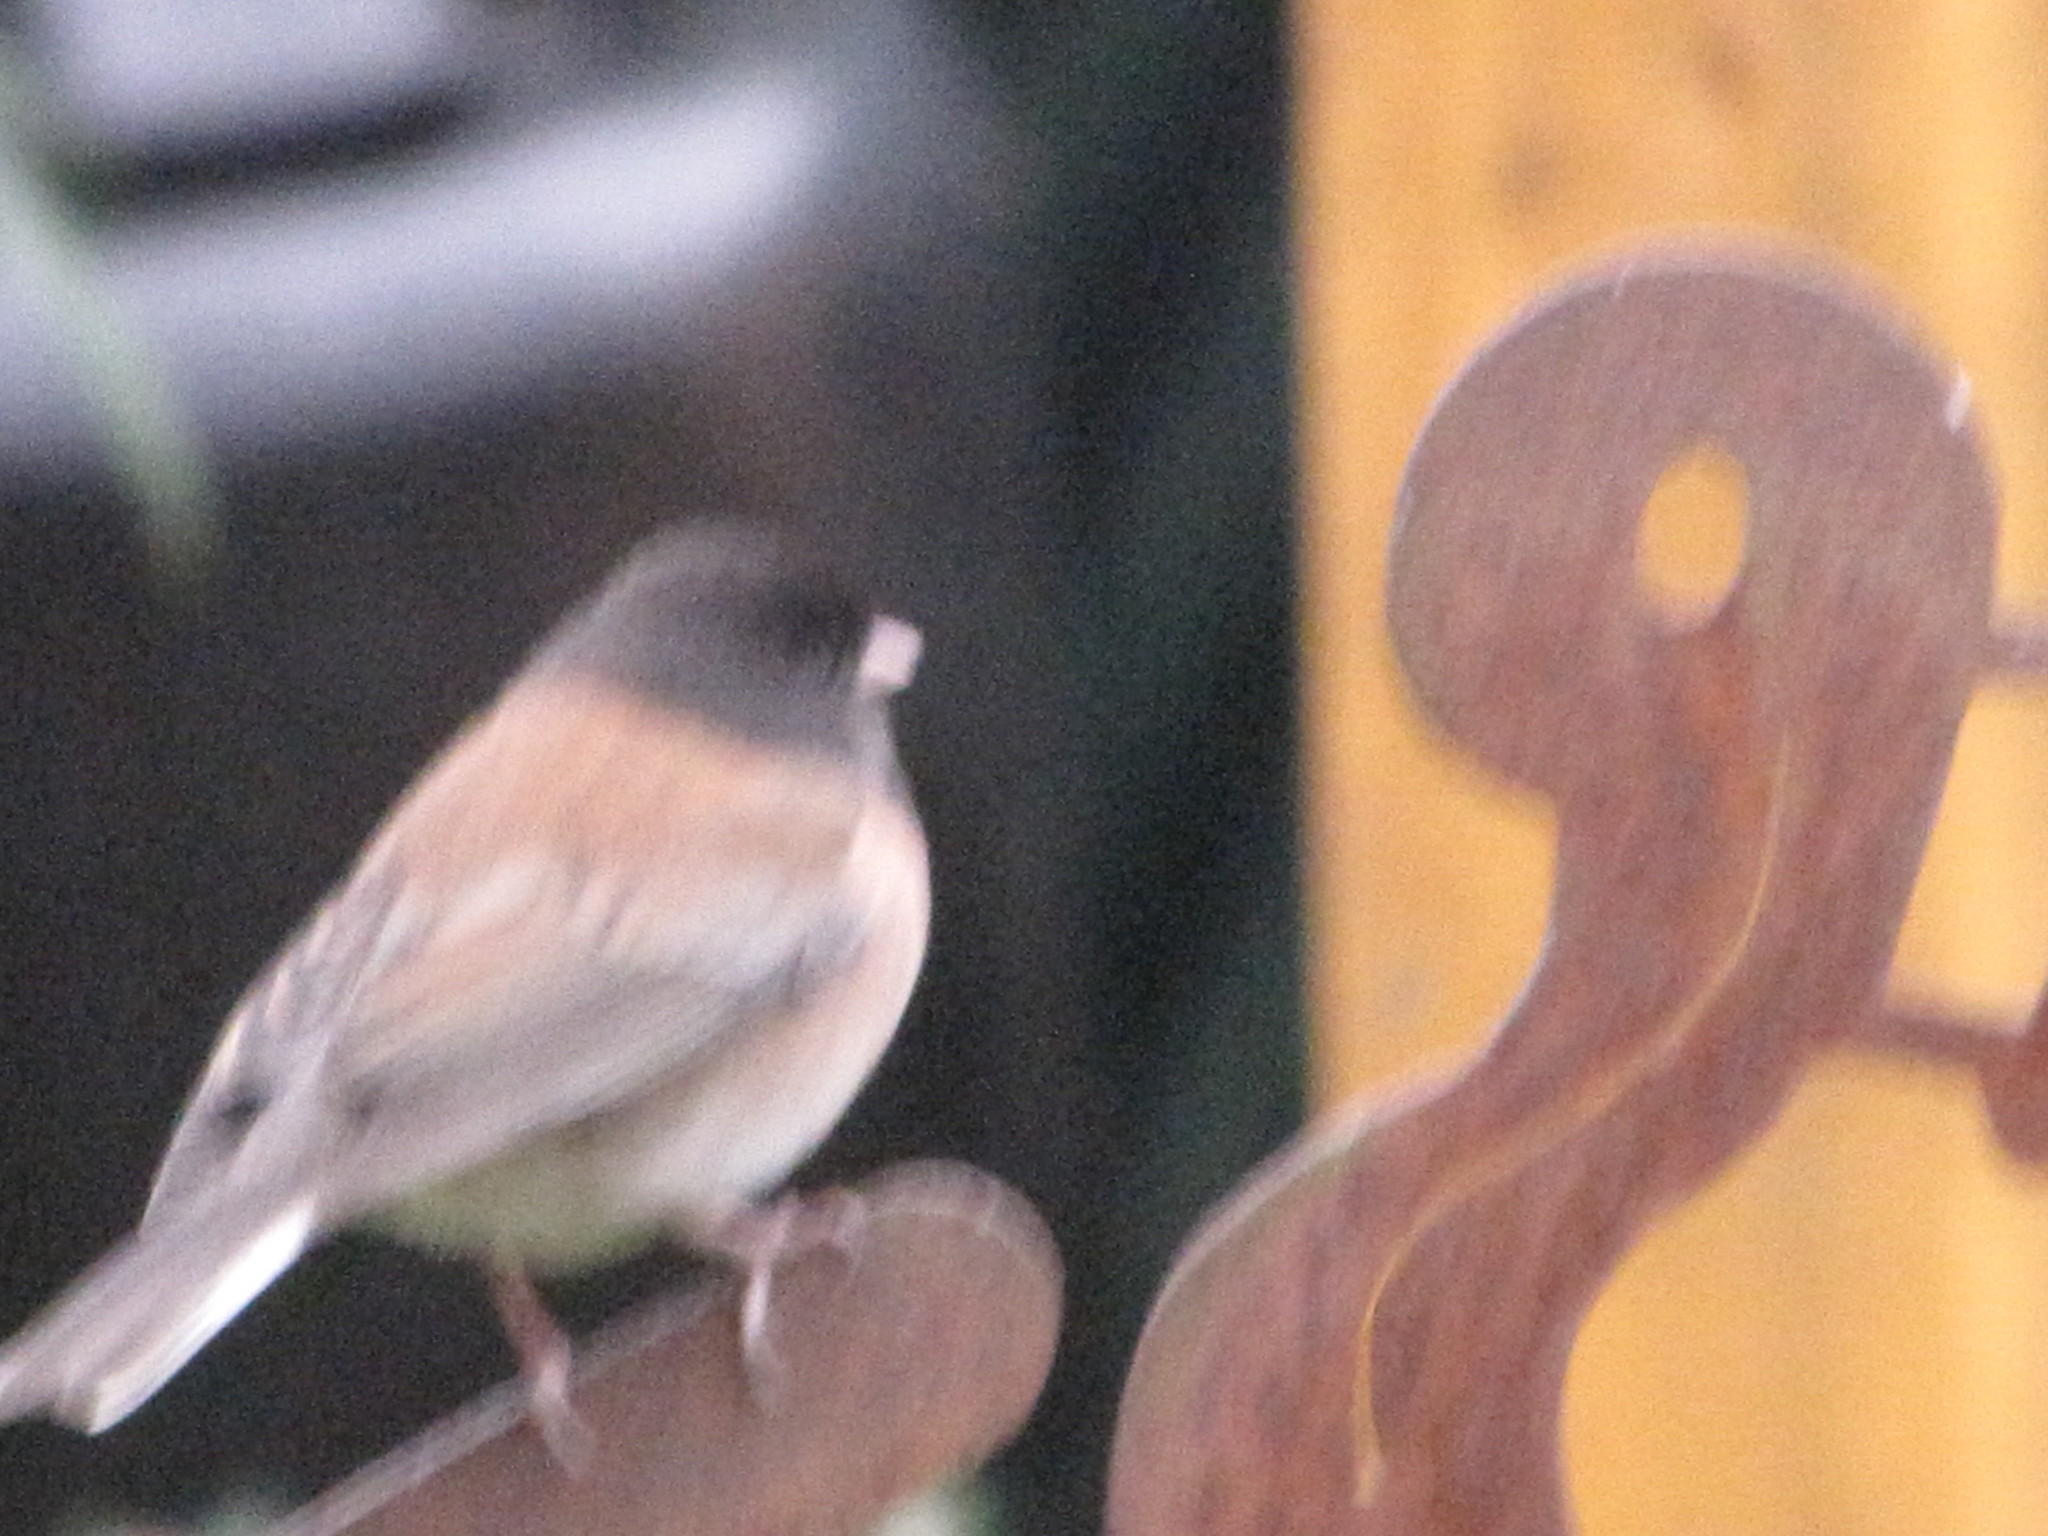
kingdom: Animalia
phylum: Chordata
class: Aves
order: Passeriformes
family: Passerellidae
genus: Junco
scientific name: Junco hyemalis
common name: Dark-eyed junco
